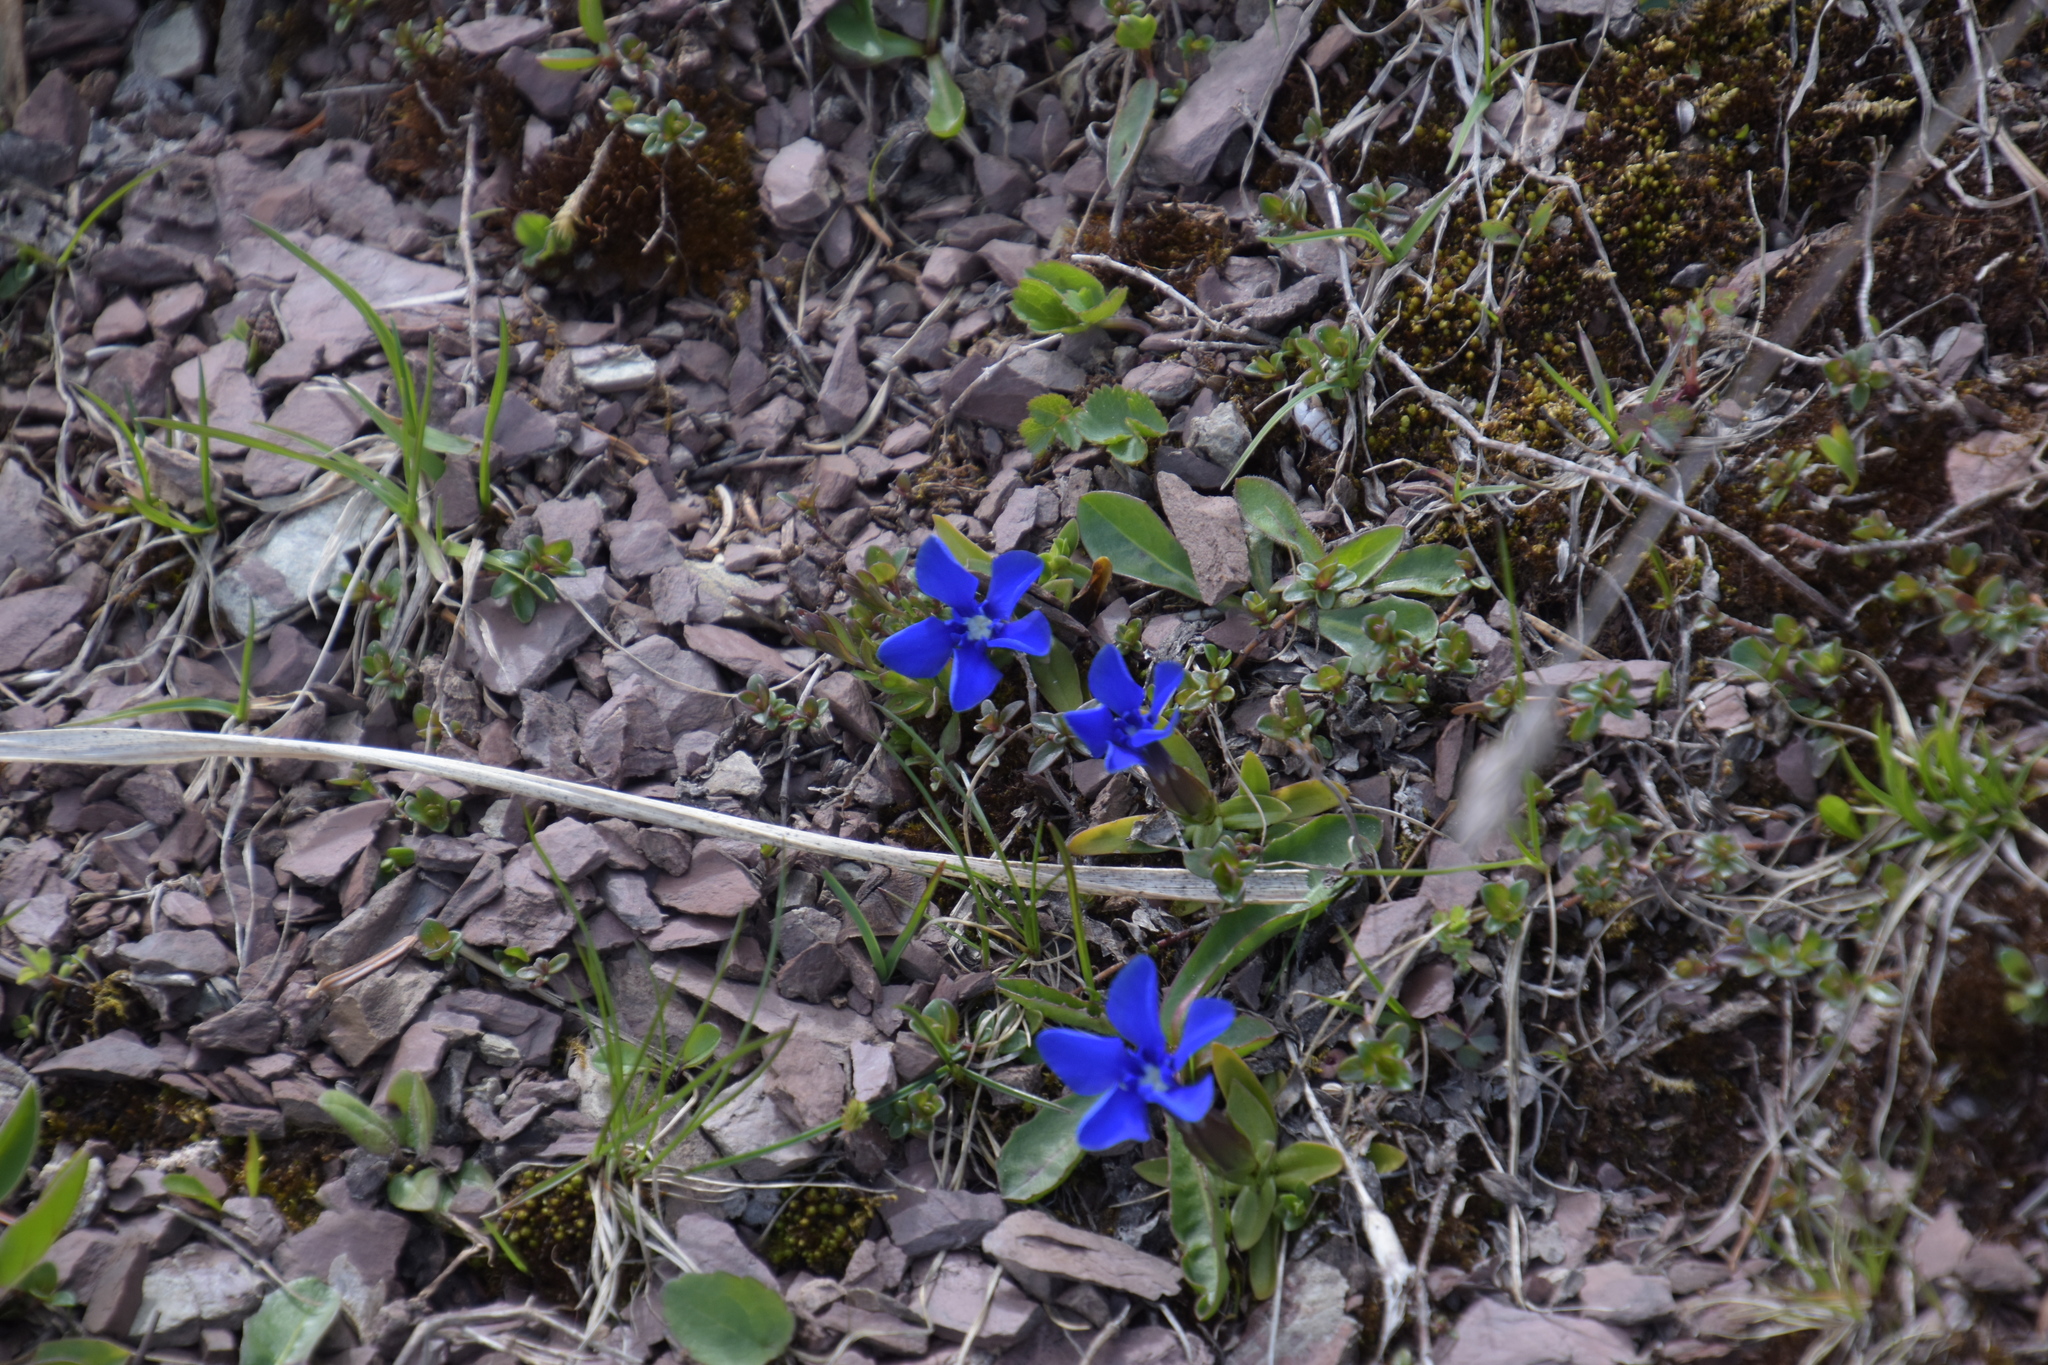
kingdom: Plantae
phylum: Tracheophyta
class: Magnoliopsida
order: Gentianales
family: Gentianaceae
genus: Gentiana
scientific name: Gentiana verna
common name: Spring gentian
